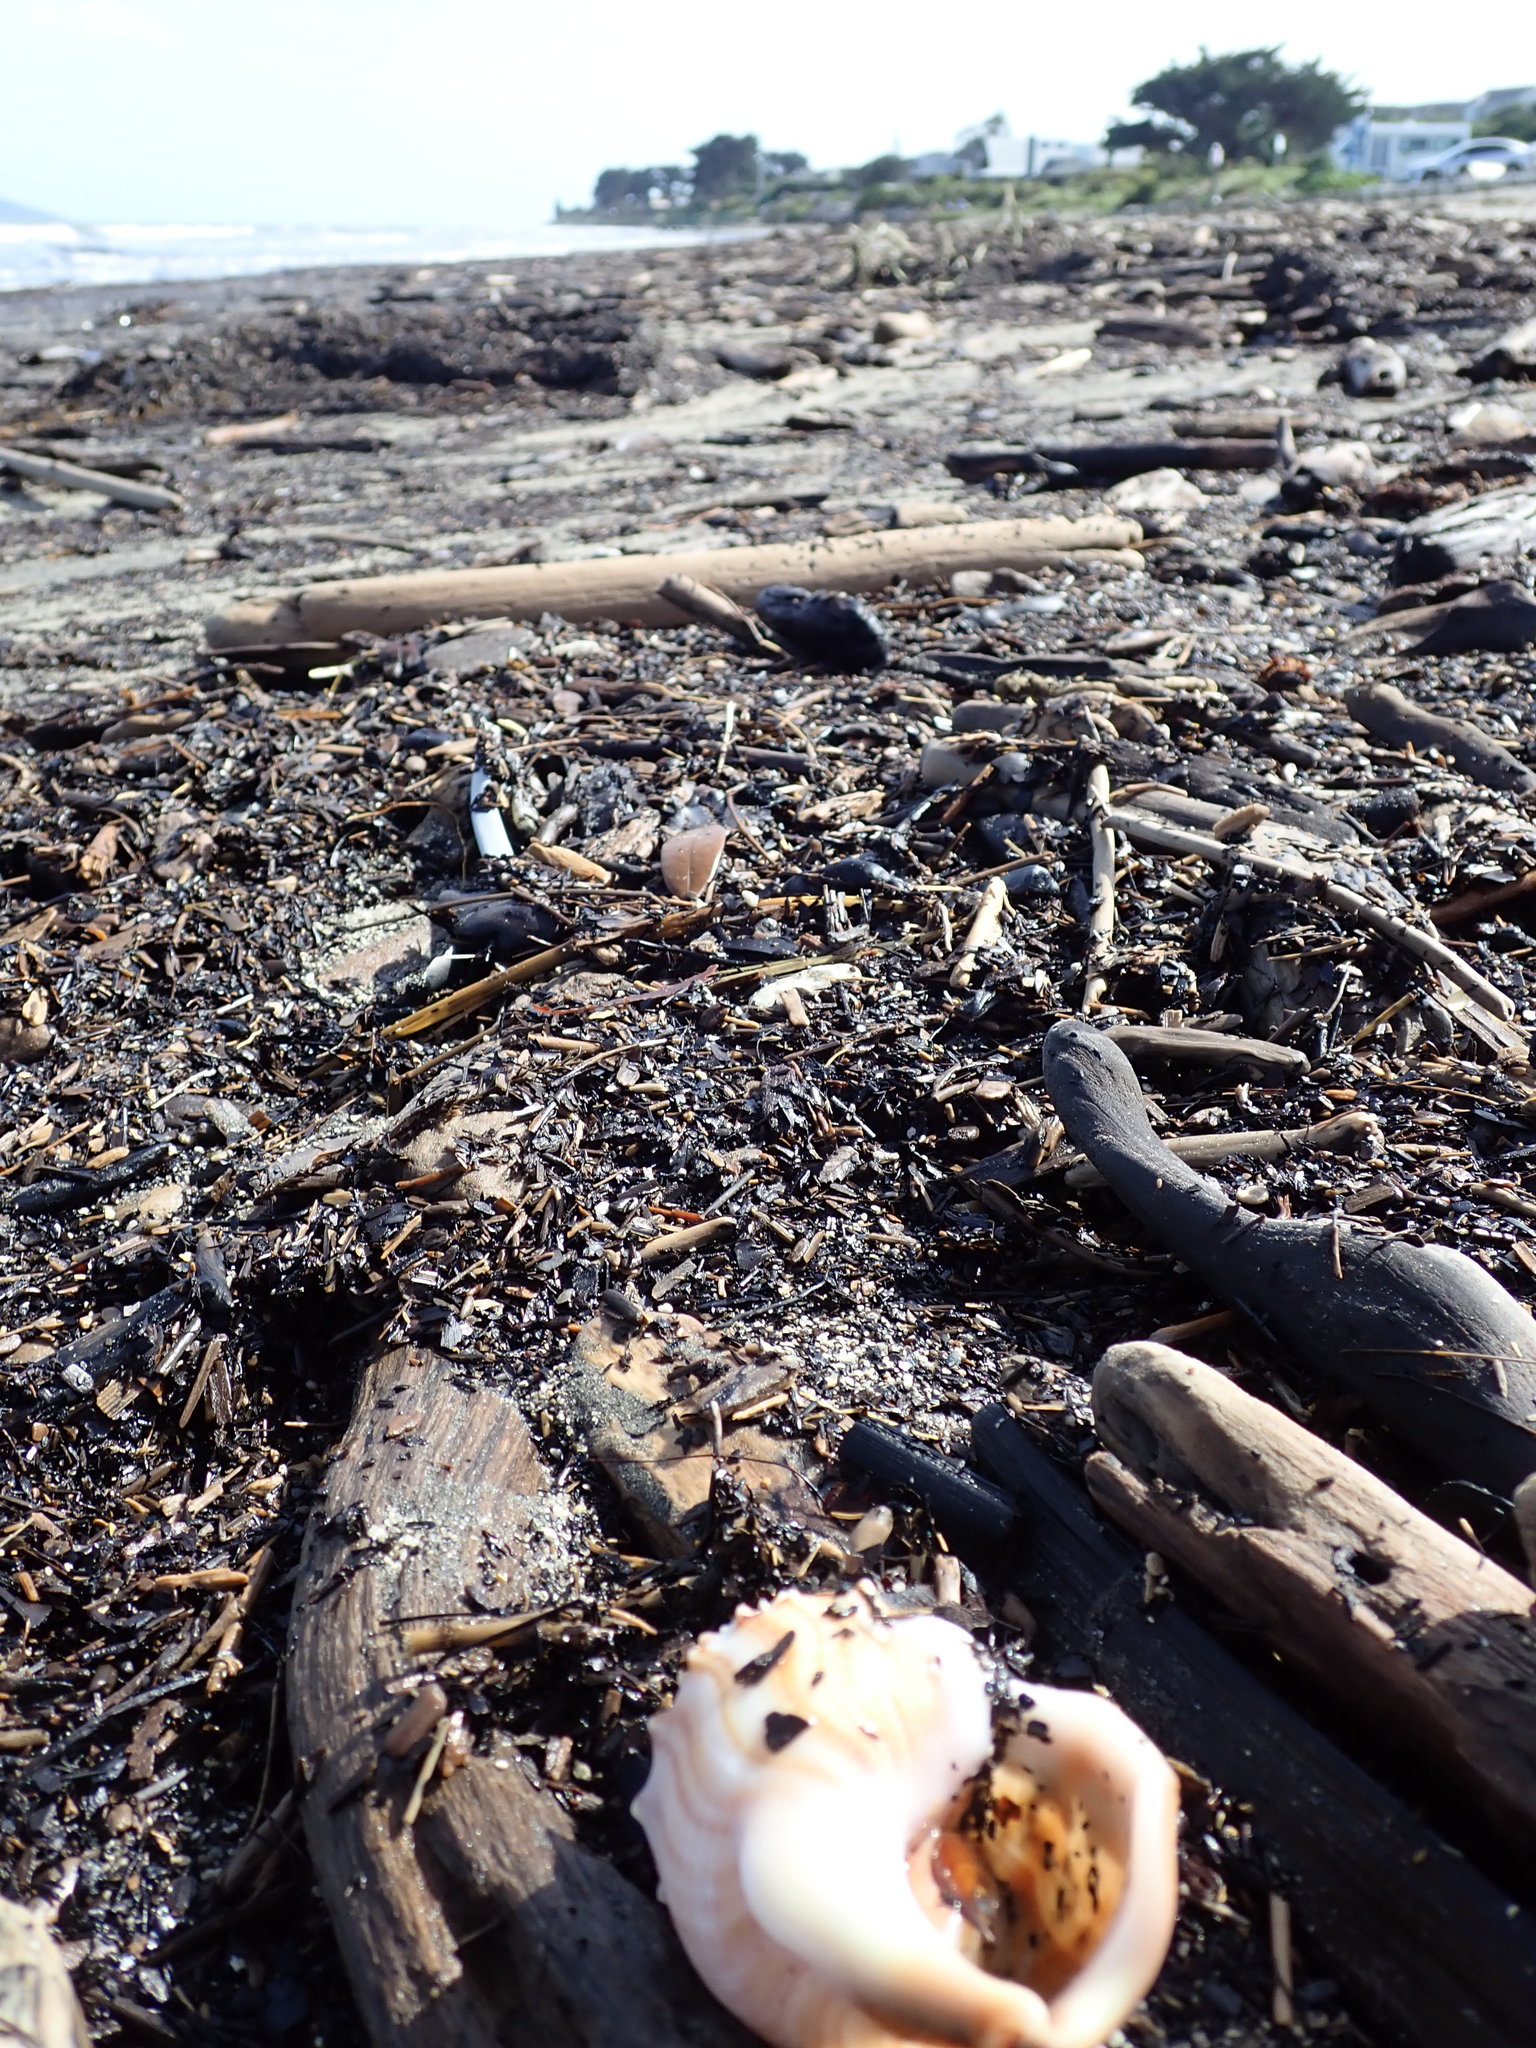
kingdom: Animalia
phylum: Mollusca
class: Gastropoda
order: Littorinimorpha
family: Struthiolariidae
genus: Struthiolaria
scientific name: Struthiolaria papulosa
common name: Large ostrich foot
